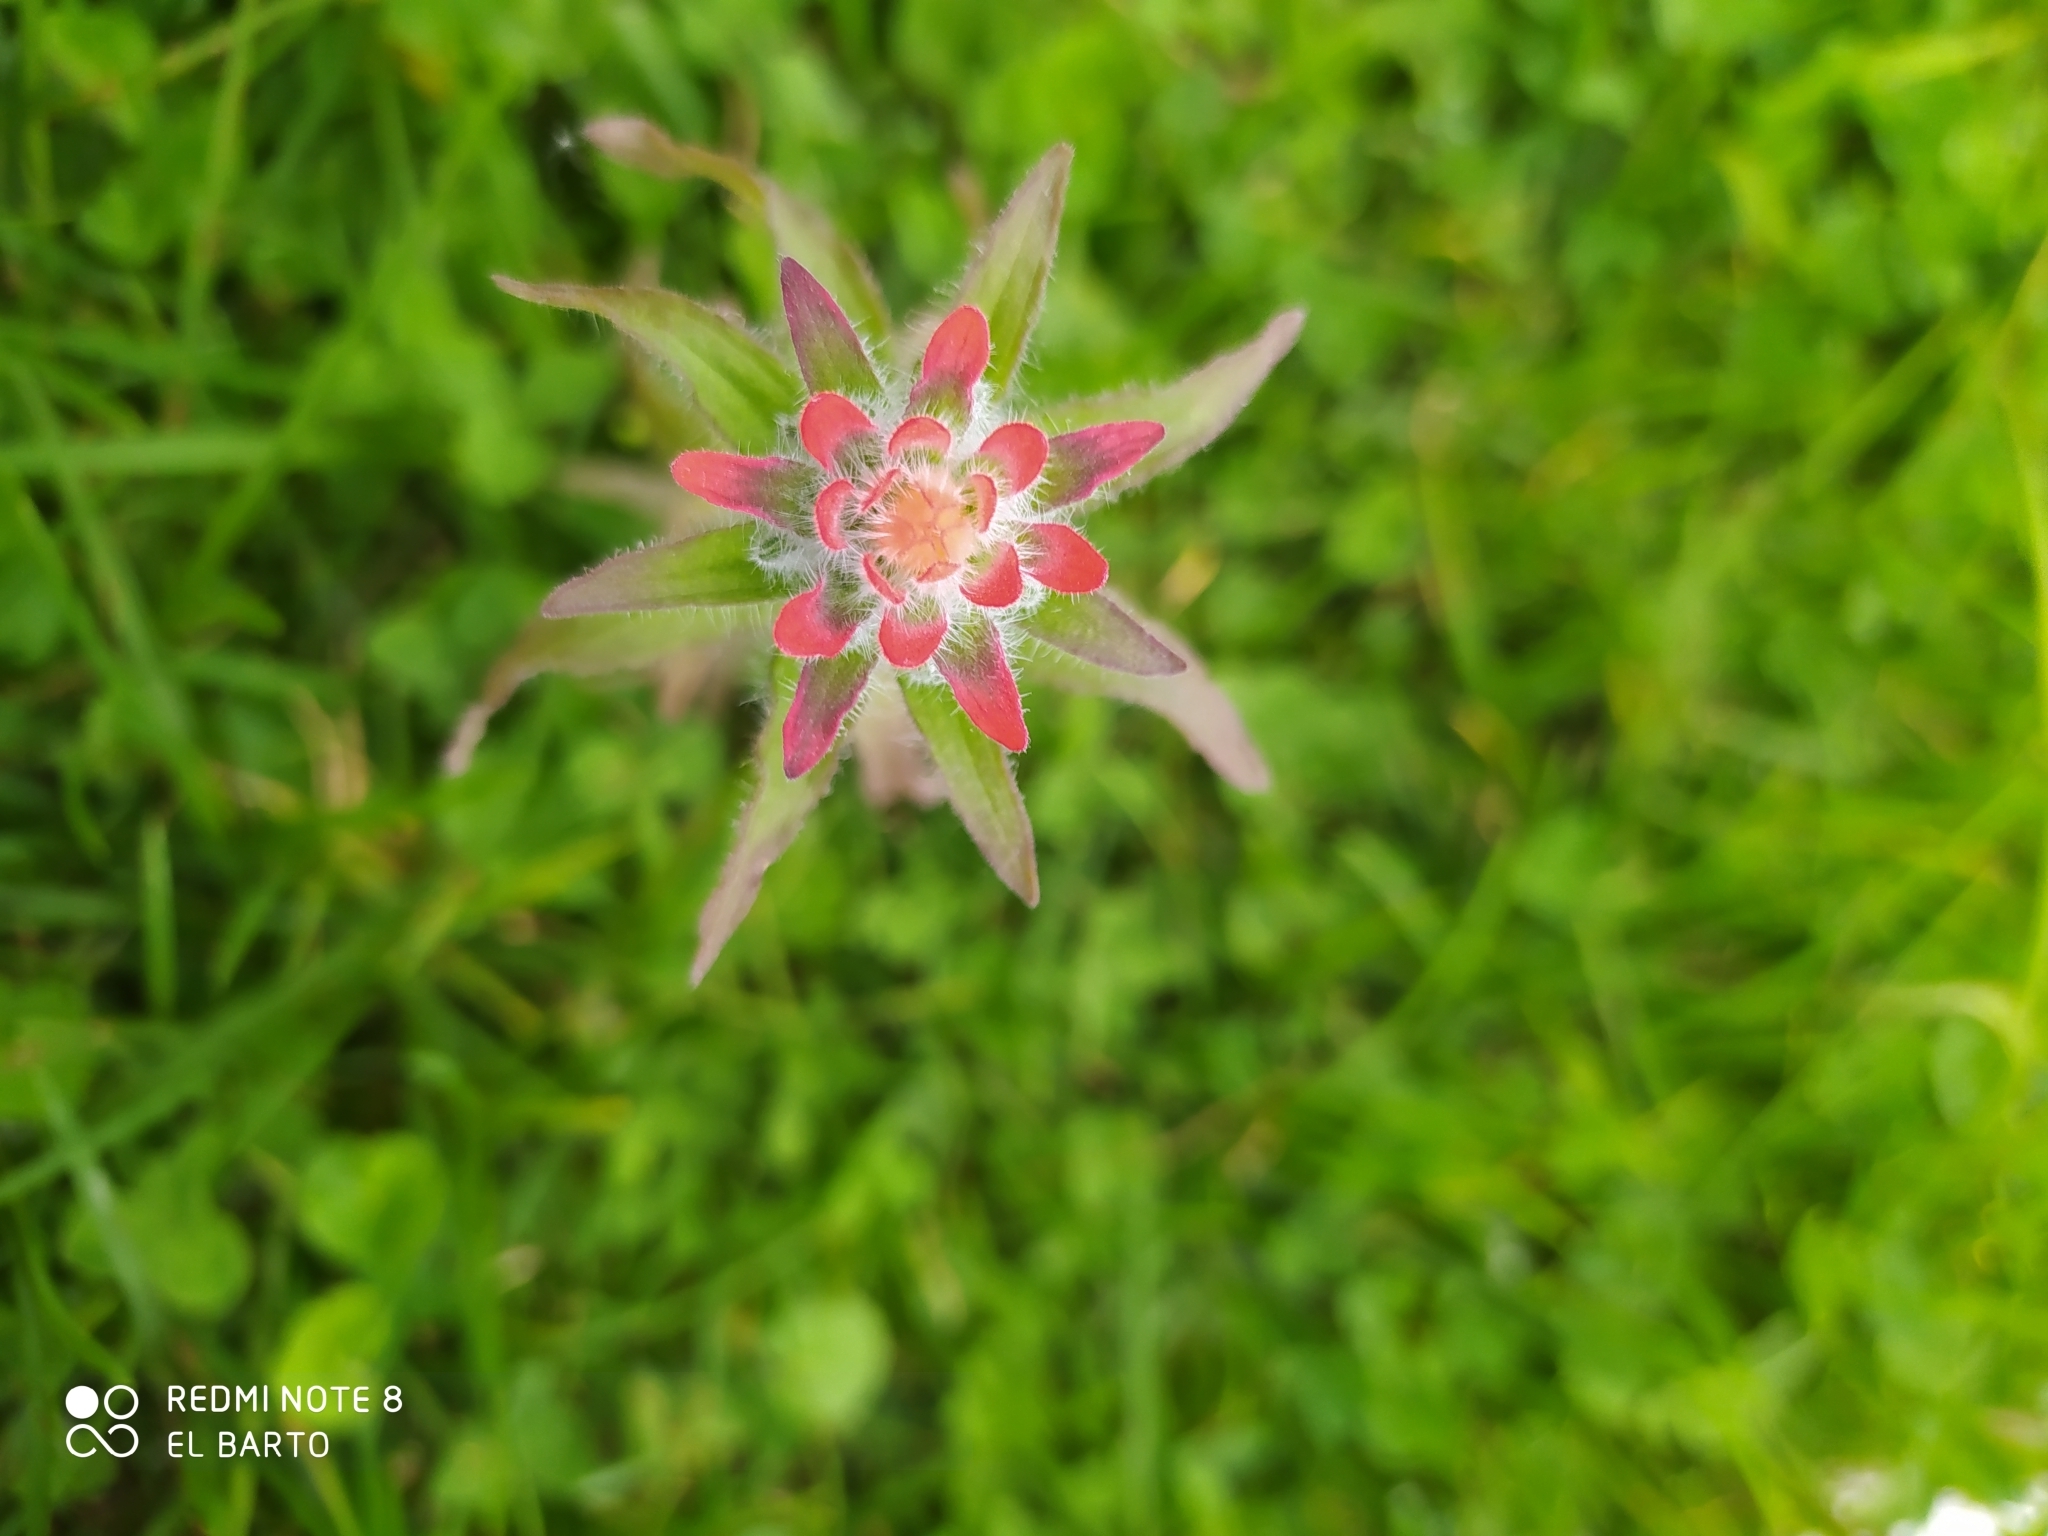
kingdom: Plantae
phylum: Tracheophyta
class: Magnoliopsida
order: Lamiales
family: Orobanchaceae
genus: Castilleja
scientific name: Castilleja arvensis
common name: Indian paintbrush
